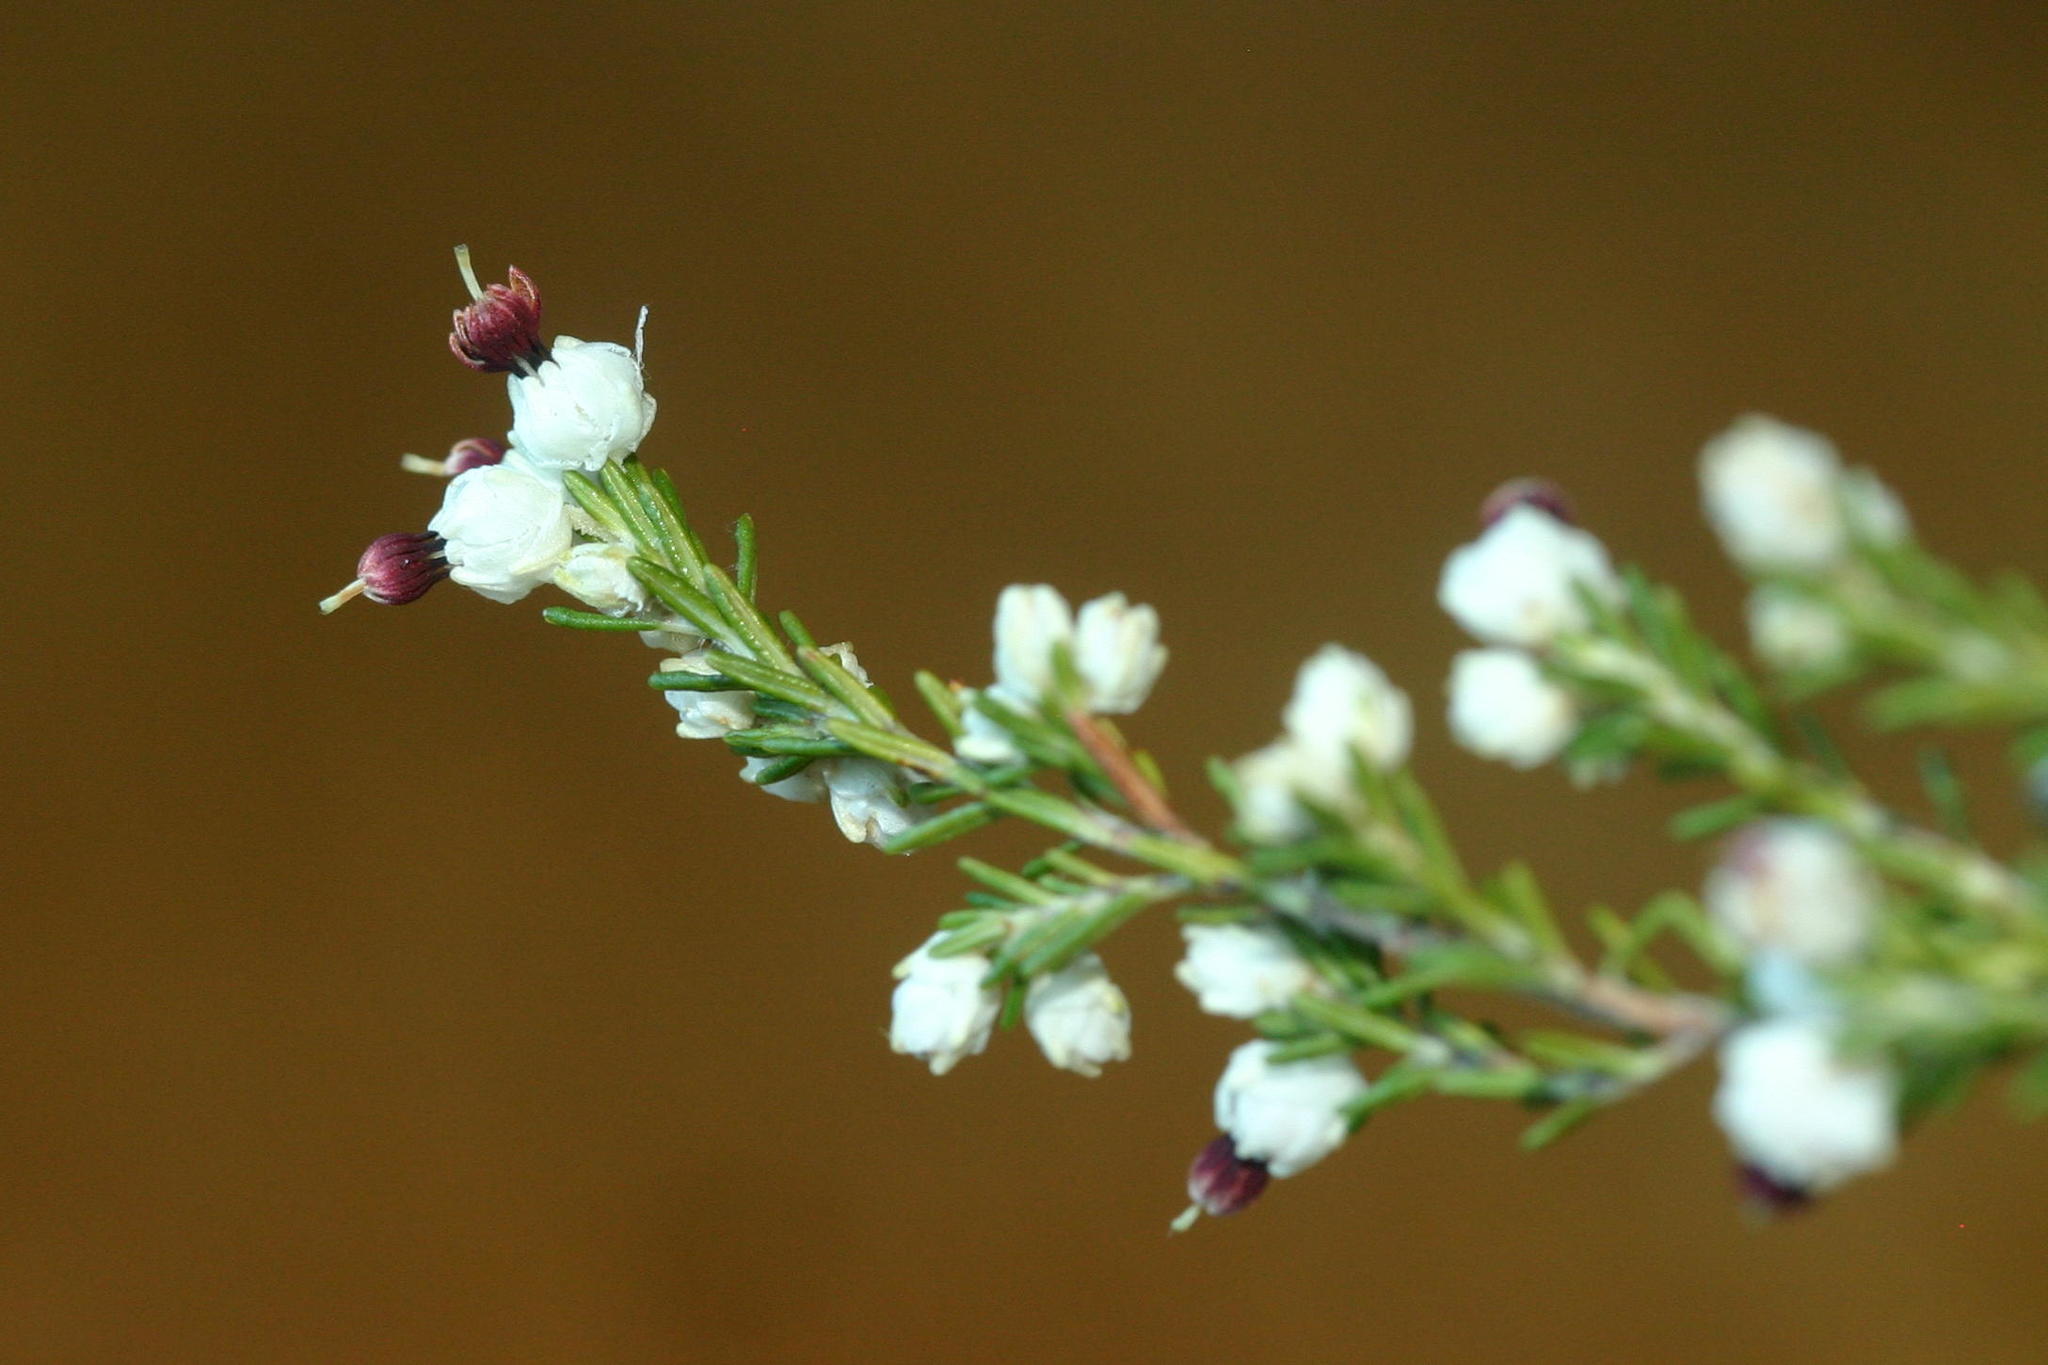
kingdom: Plantae
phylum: Tracheophyta
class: Magnoliopsida
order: Ericales
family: Ericaceae
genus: Erica
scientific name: Erica chartacea
